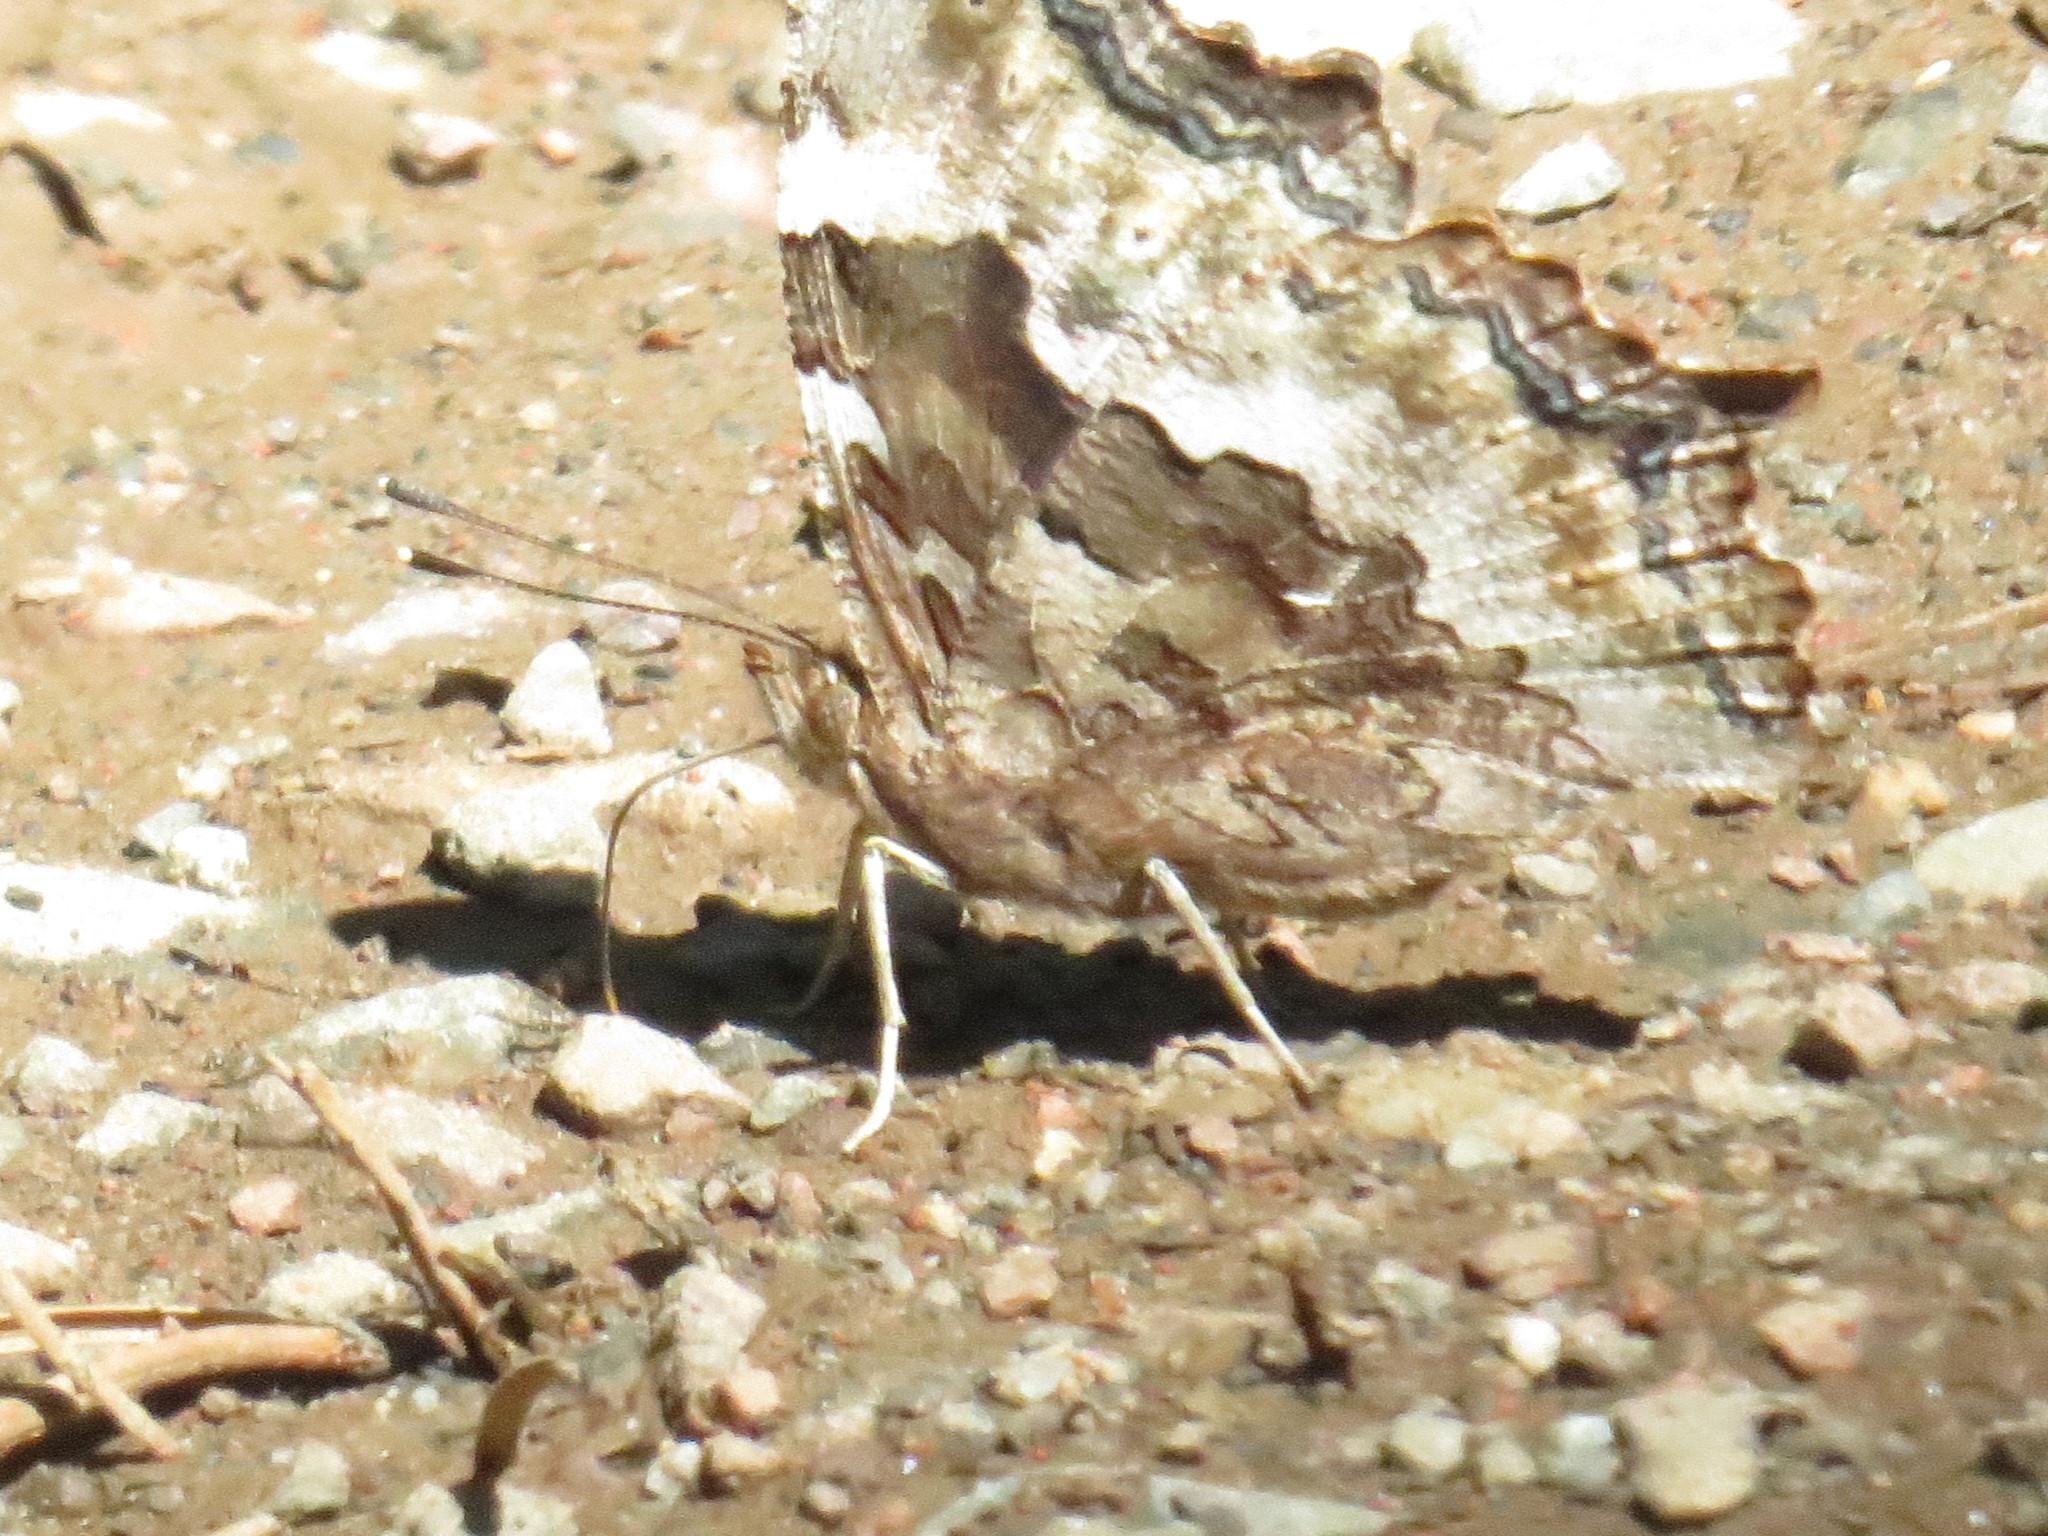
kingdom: Animalia
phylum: Arthropoda
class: Insecta
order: Lepidoptera
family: Nymphalidae
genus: Polygonia
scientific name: Polygonia vaualbum
